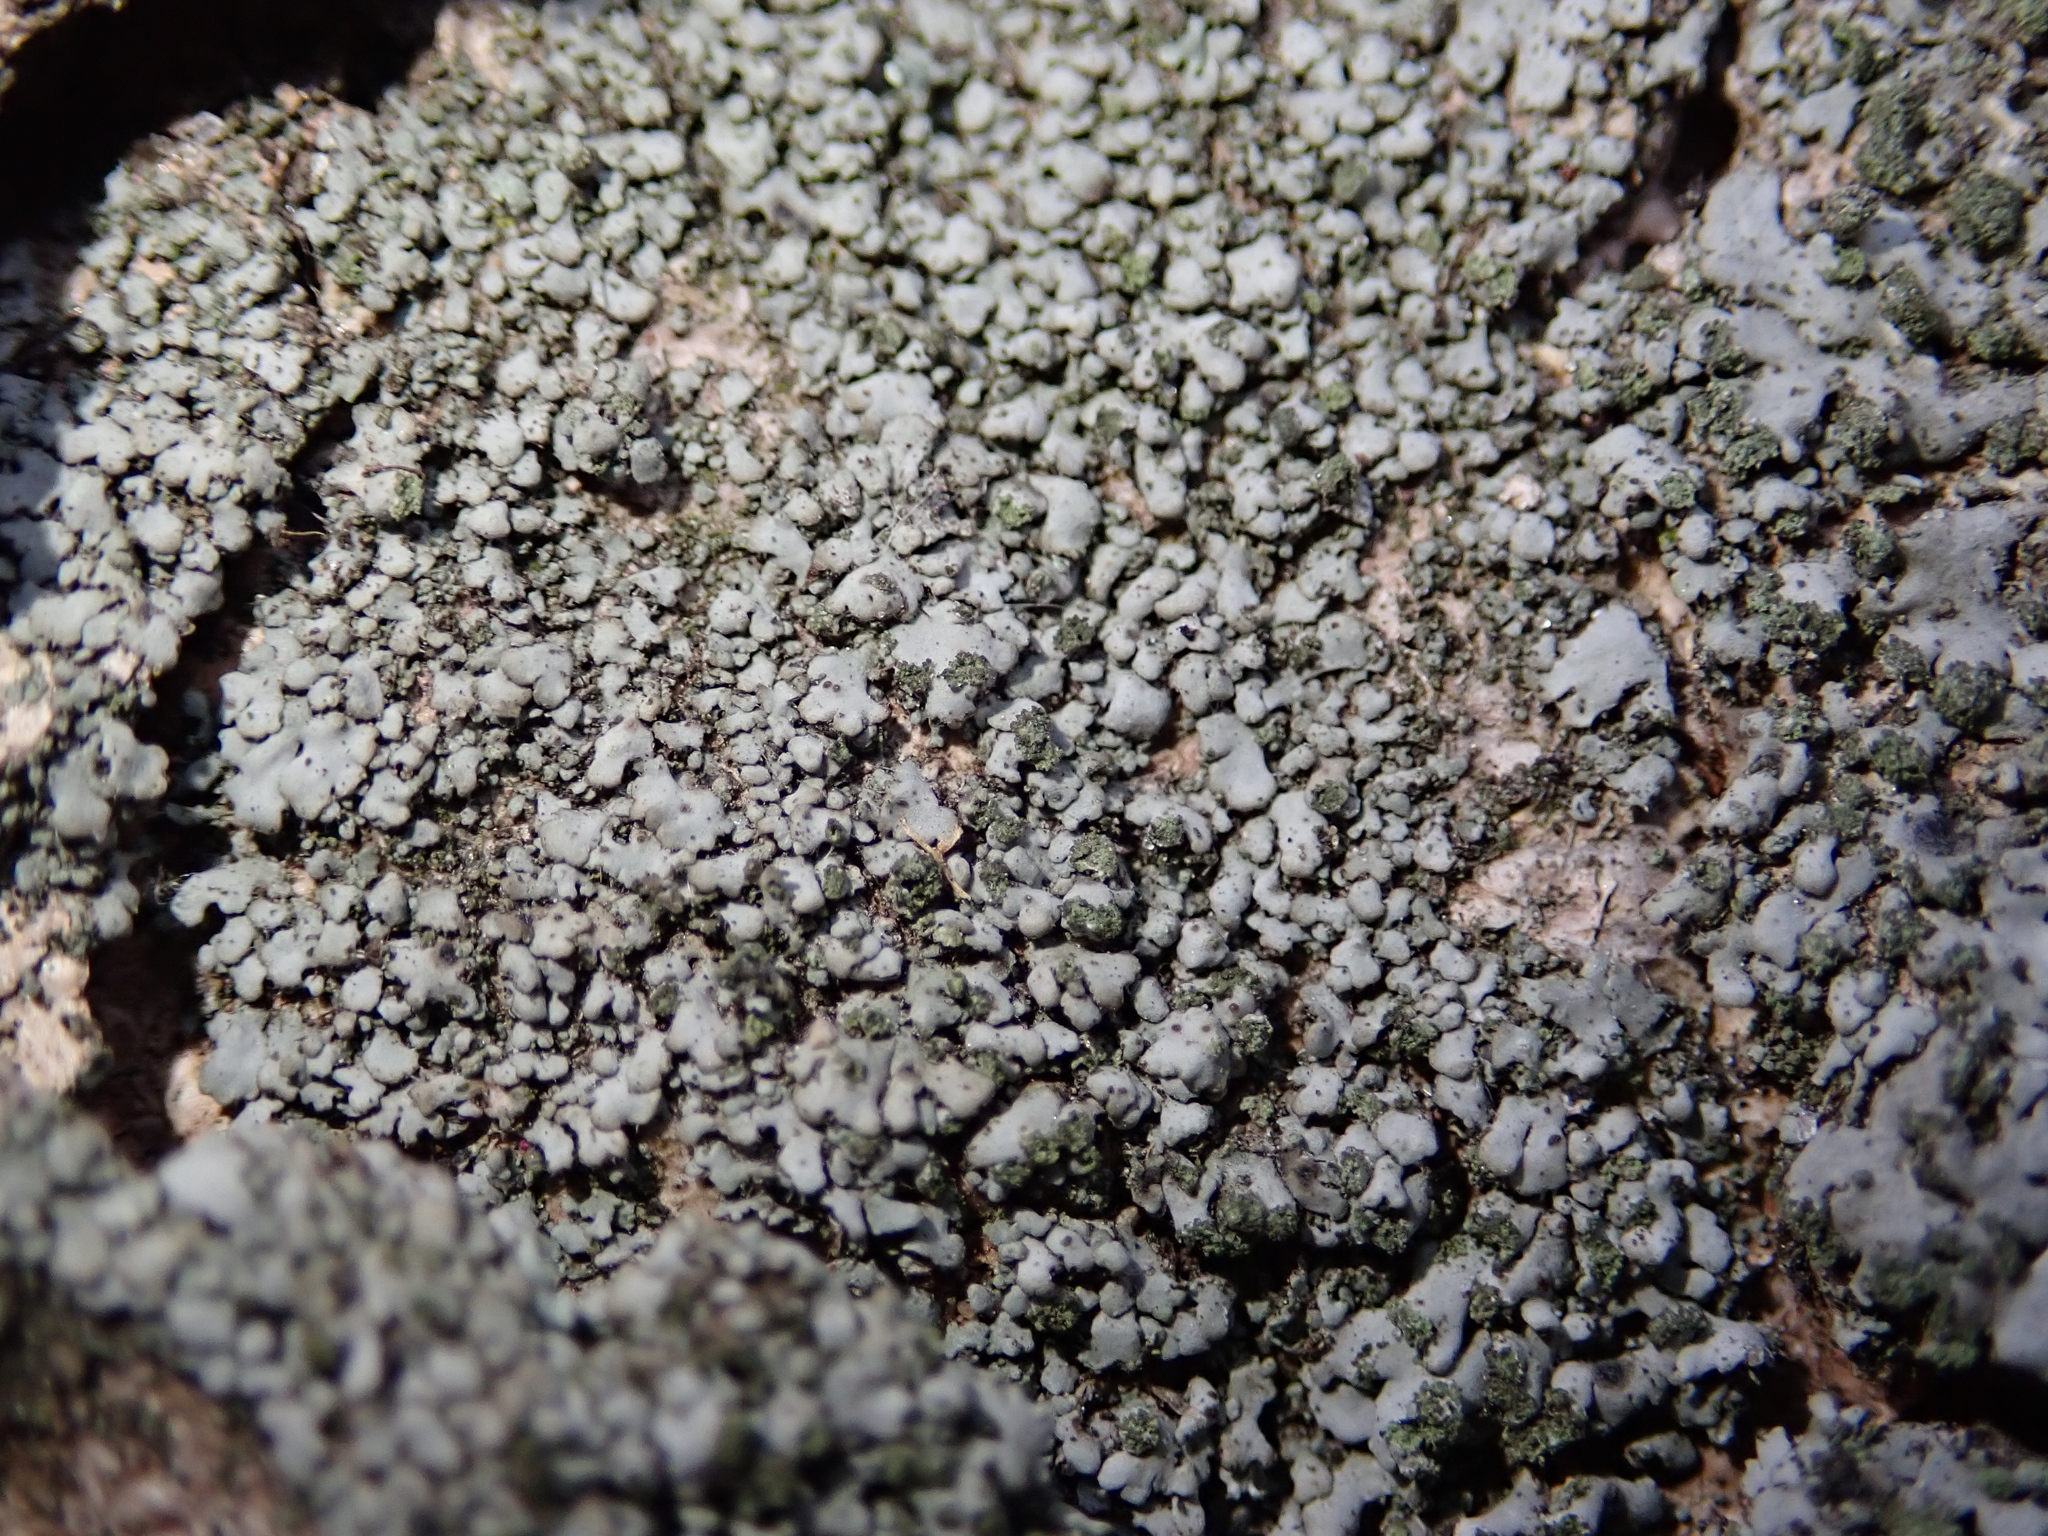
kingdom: Fungi
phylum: Ascomycota
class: Lecanoromycetes
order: Lecanorales
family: Lecanoraceae
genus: Protoparmeliopsis
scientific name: Protoparmeliopsis muralis
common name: Stonewall rim lichen
